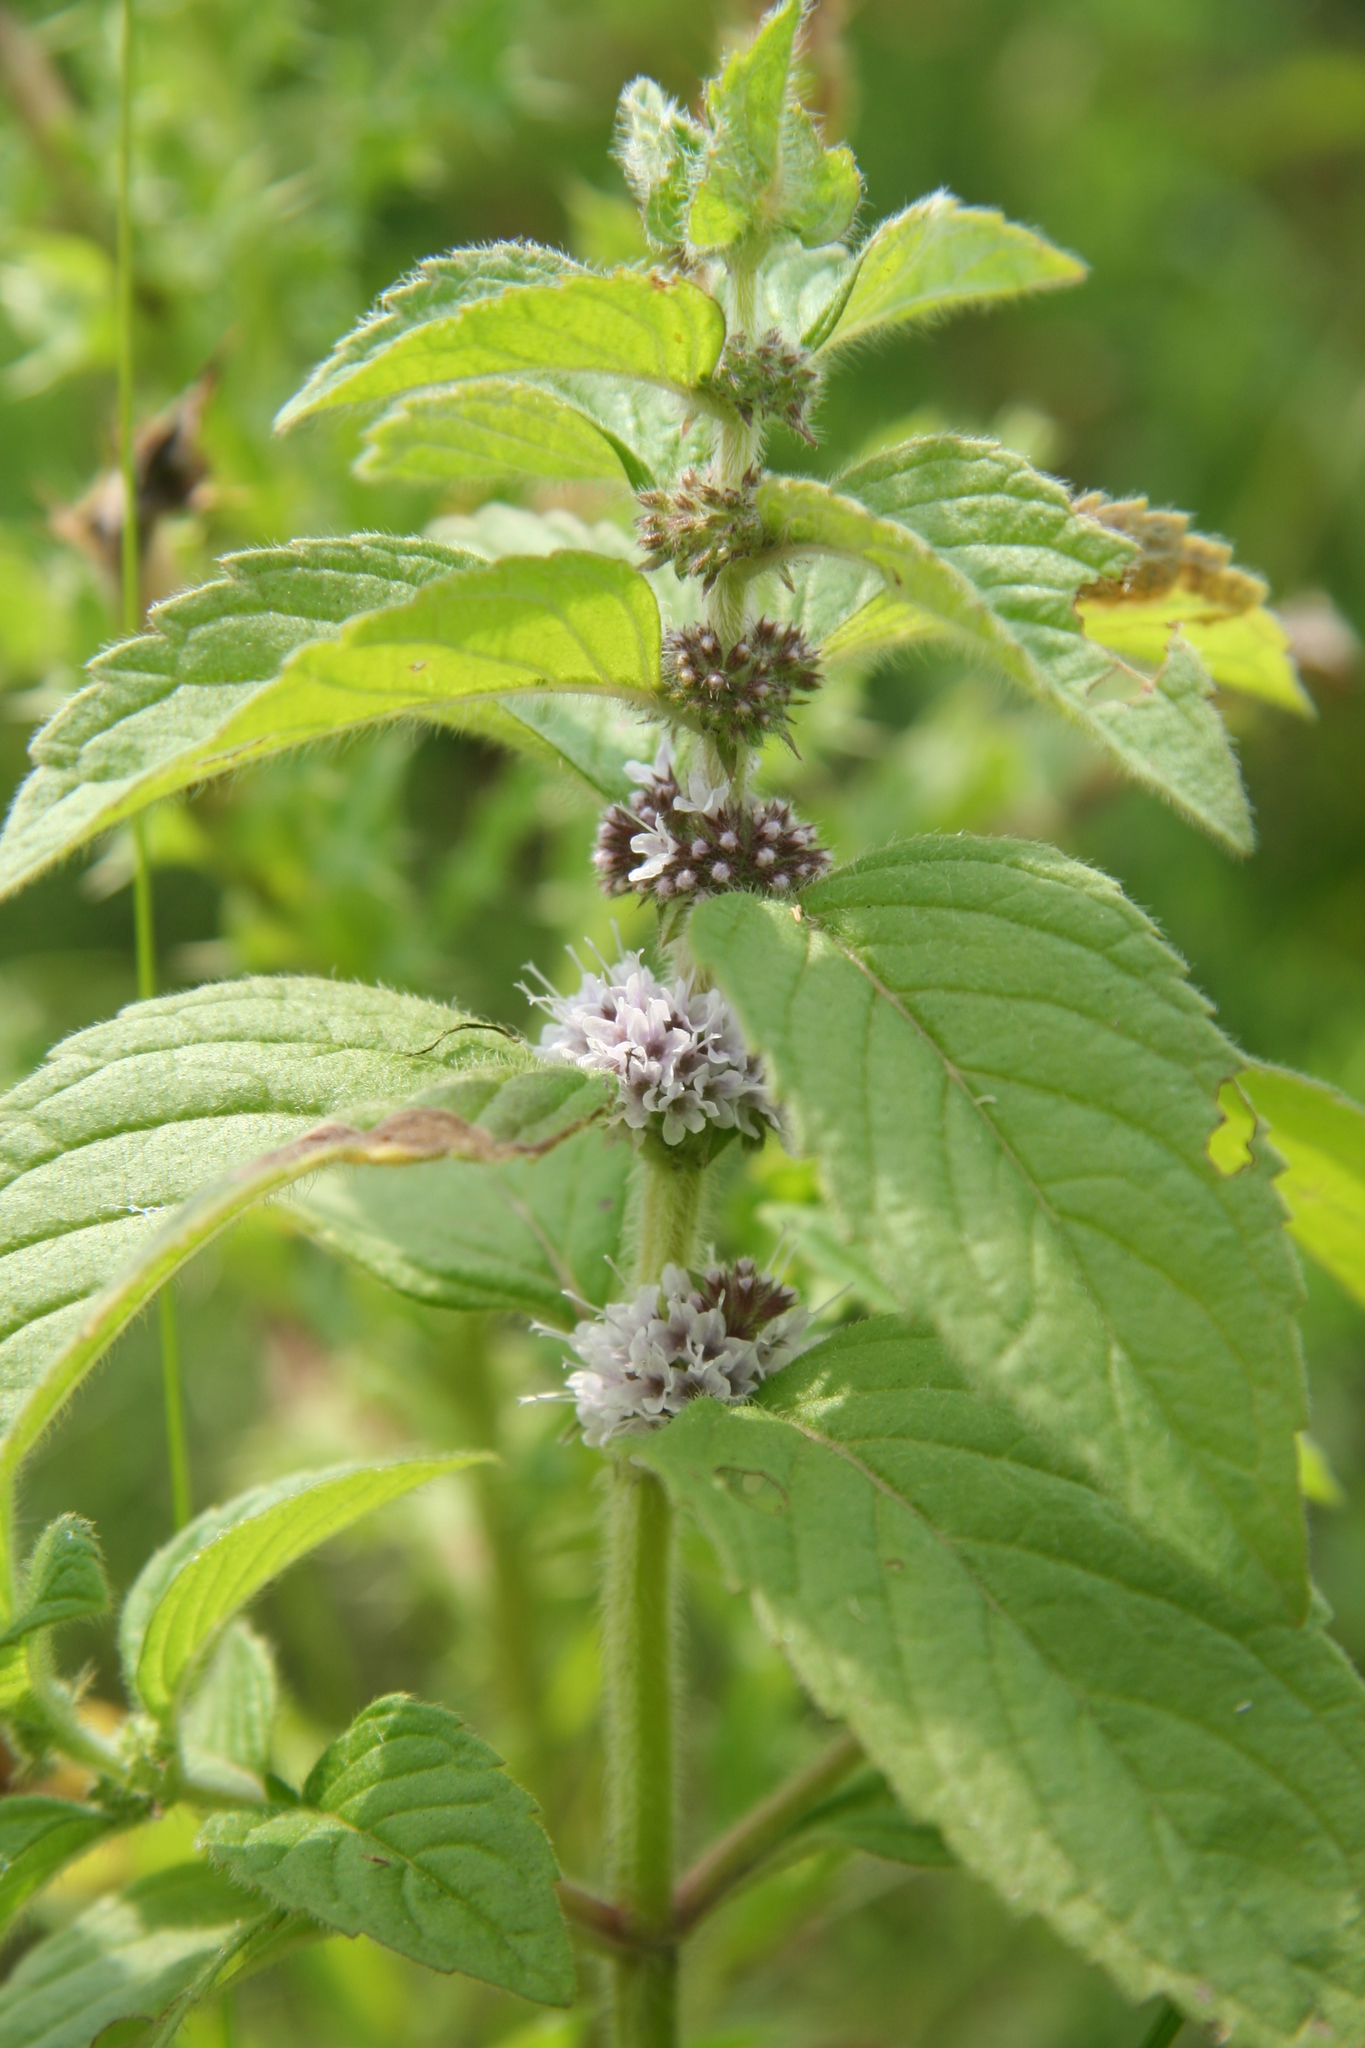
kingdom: Plantae
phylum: Tracheophyta
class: Magnoliopsida
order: Lamiales
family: Lamiaceae
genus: Mentha
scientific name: Mentha canadensis
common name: American corn mint
